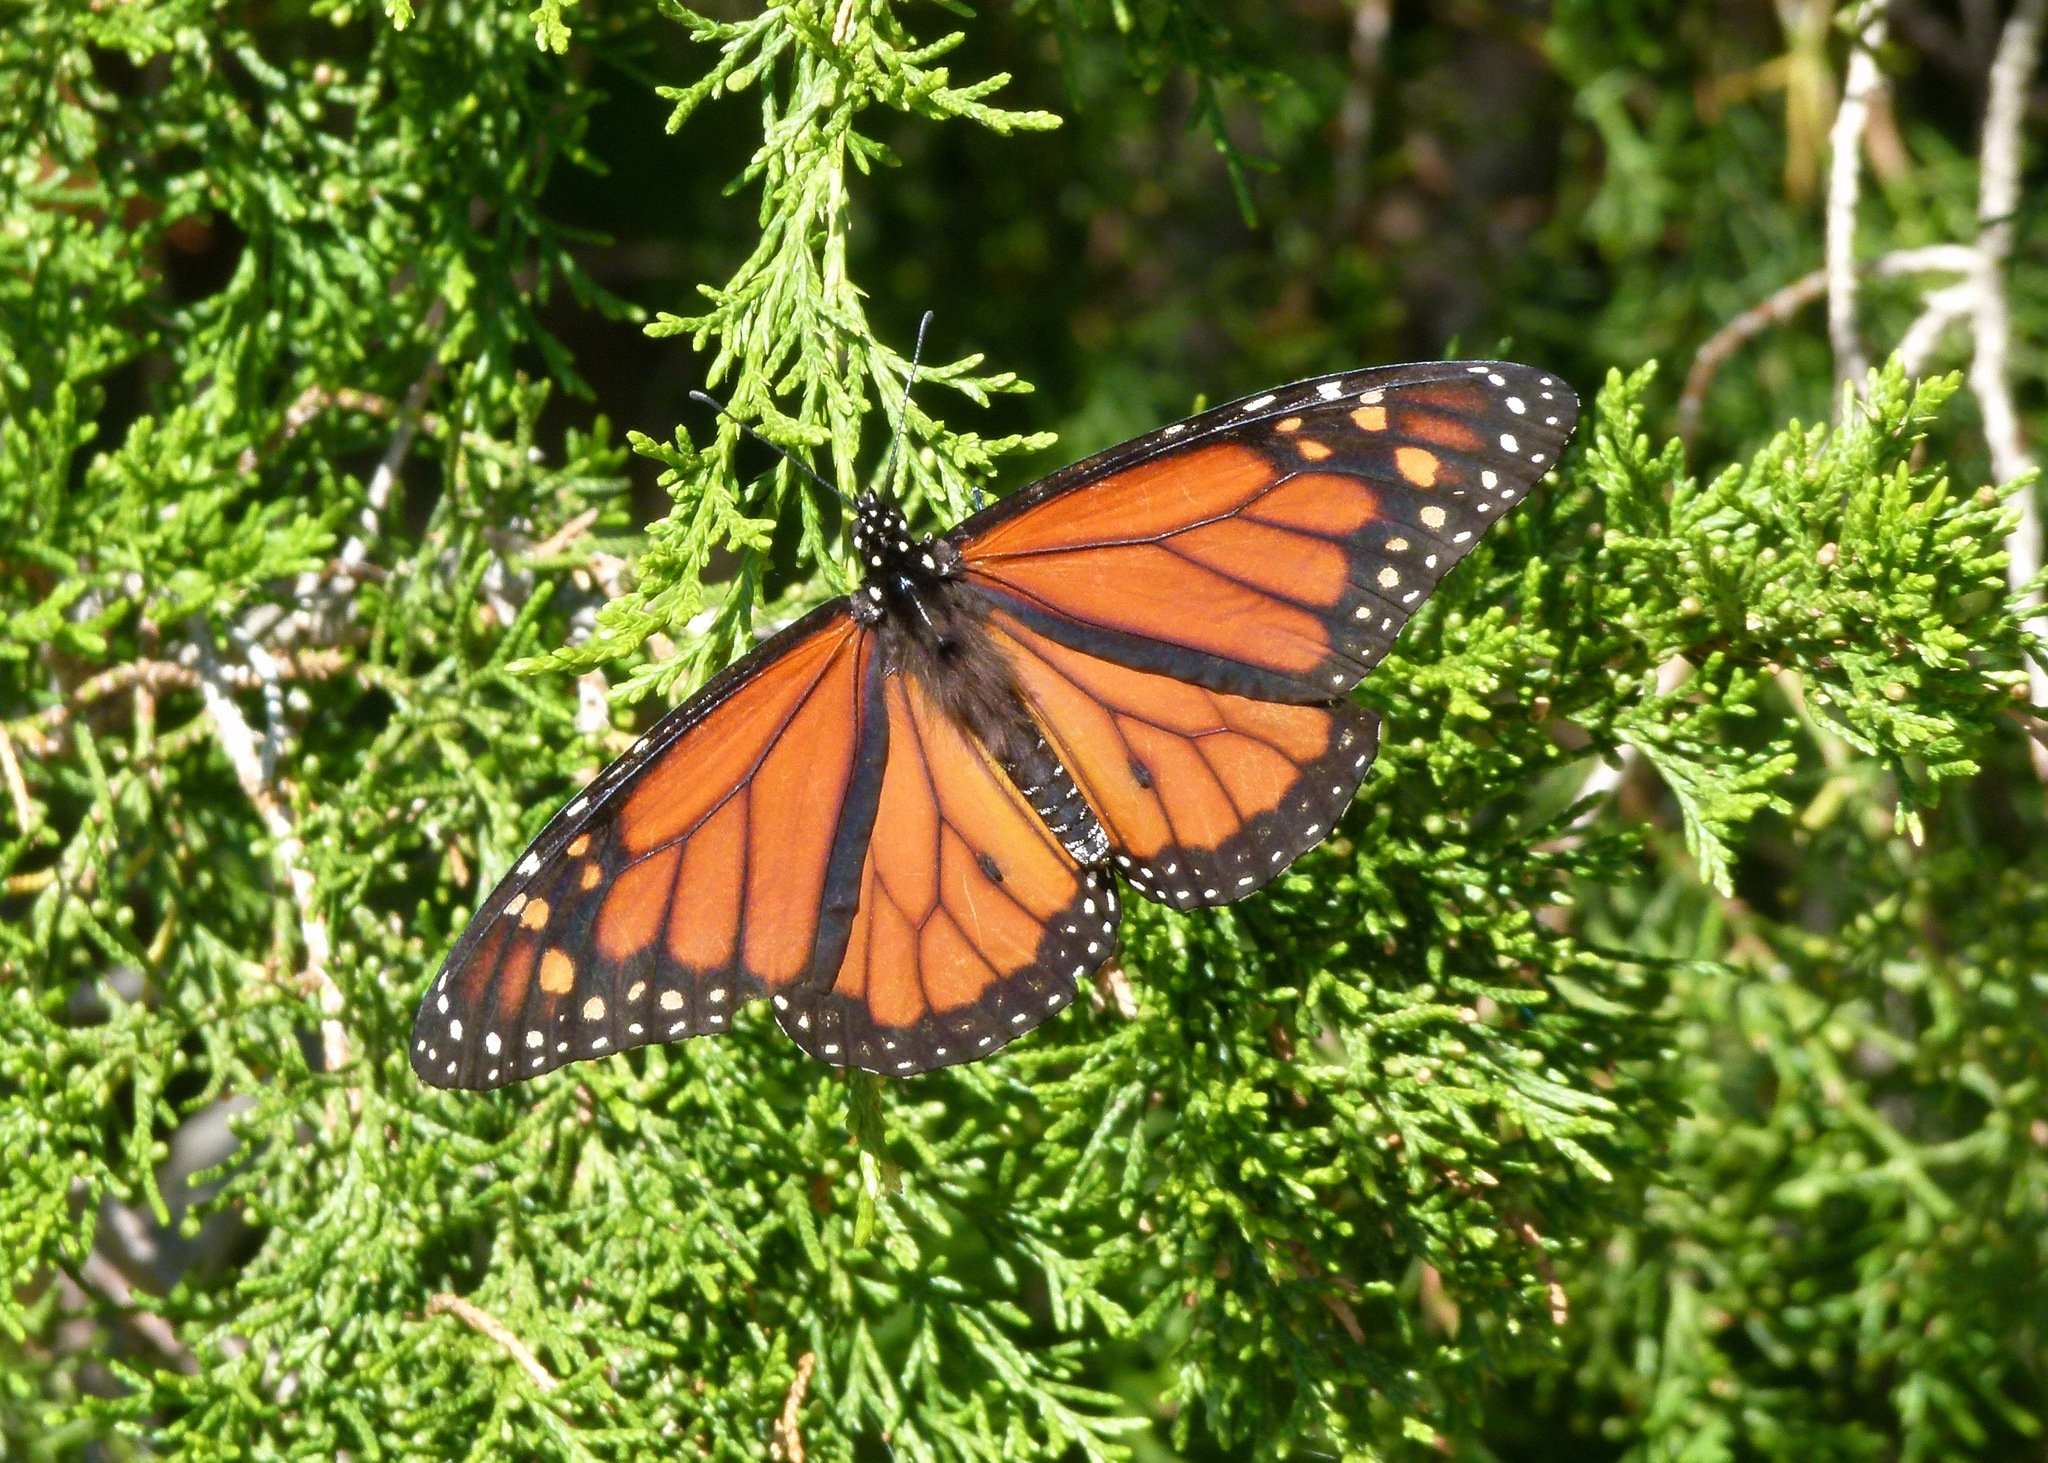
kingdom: Animalia
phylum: Arthropoda
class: Insecta
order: Lepidoptera
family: Nymphalidae
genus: Danaus
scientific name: Danaus plexippus
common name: Monarch
